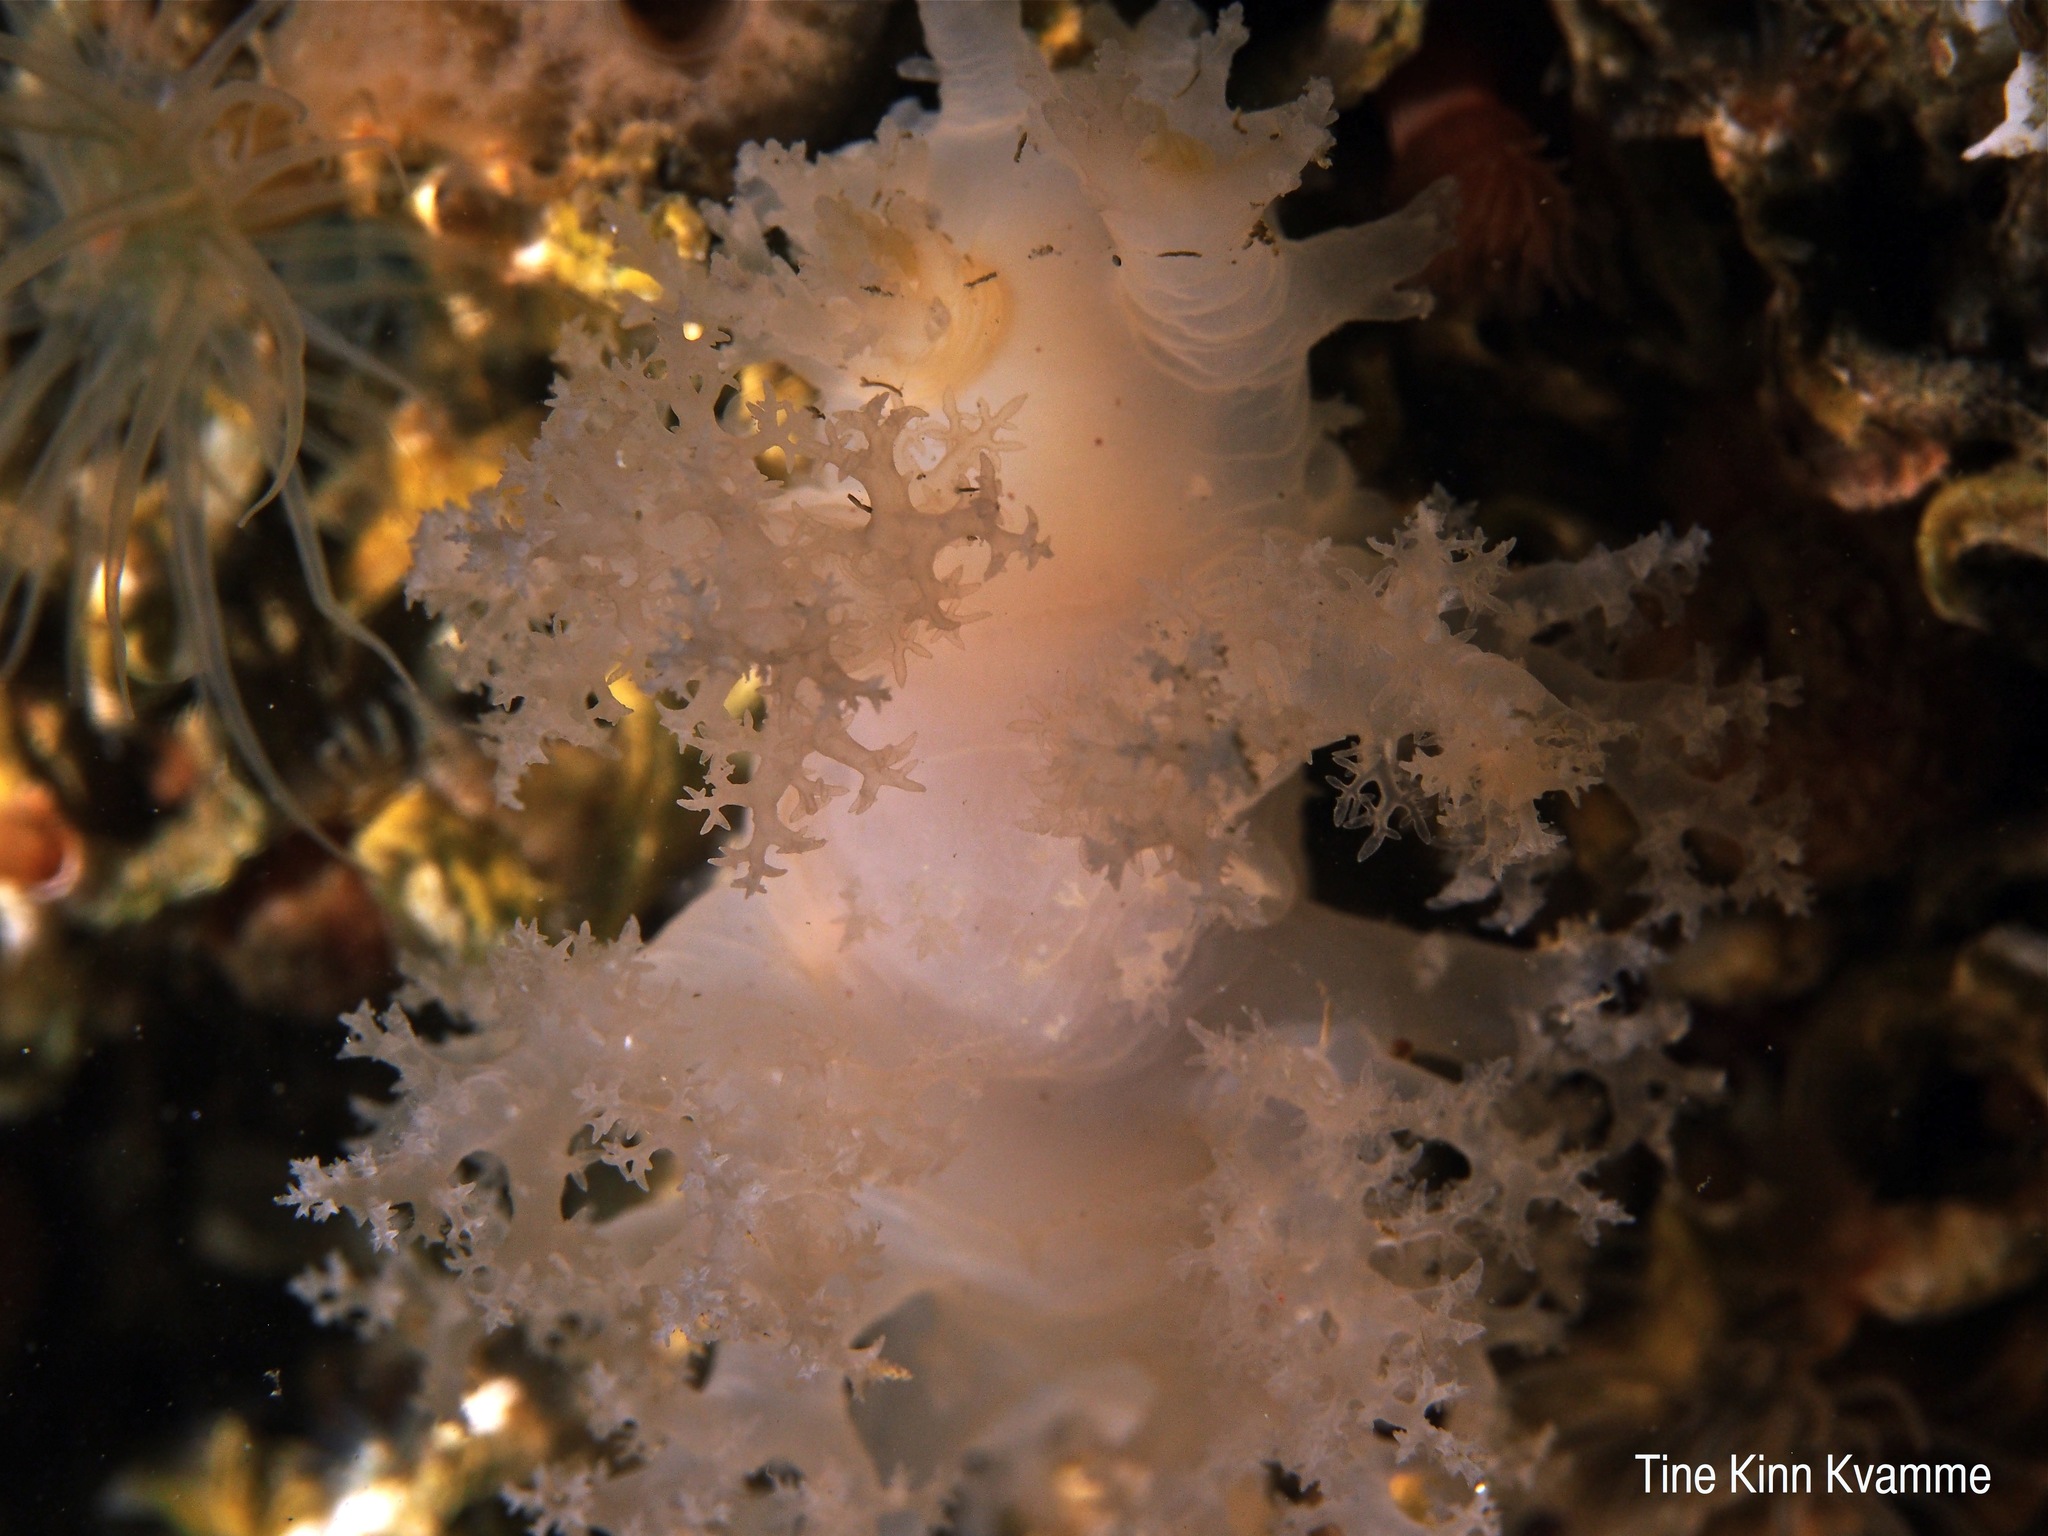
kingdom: Animalia
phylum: Mollusca
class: Gastropoda
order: Nudibranchia
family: Dendronotidae
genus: Dendronotus
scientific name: Dendronotus lacteus
